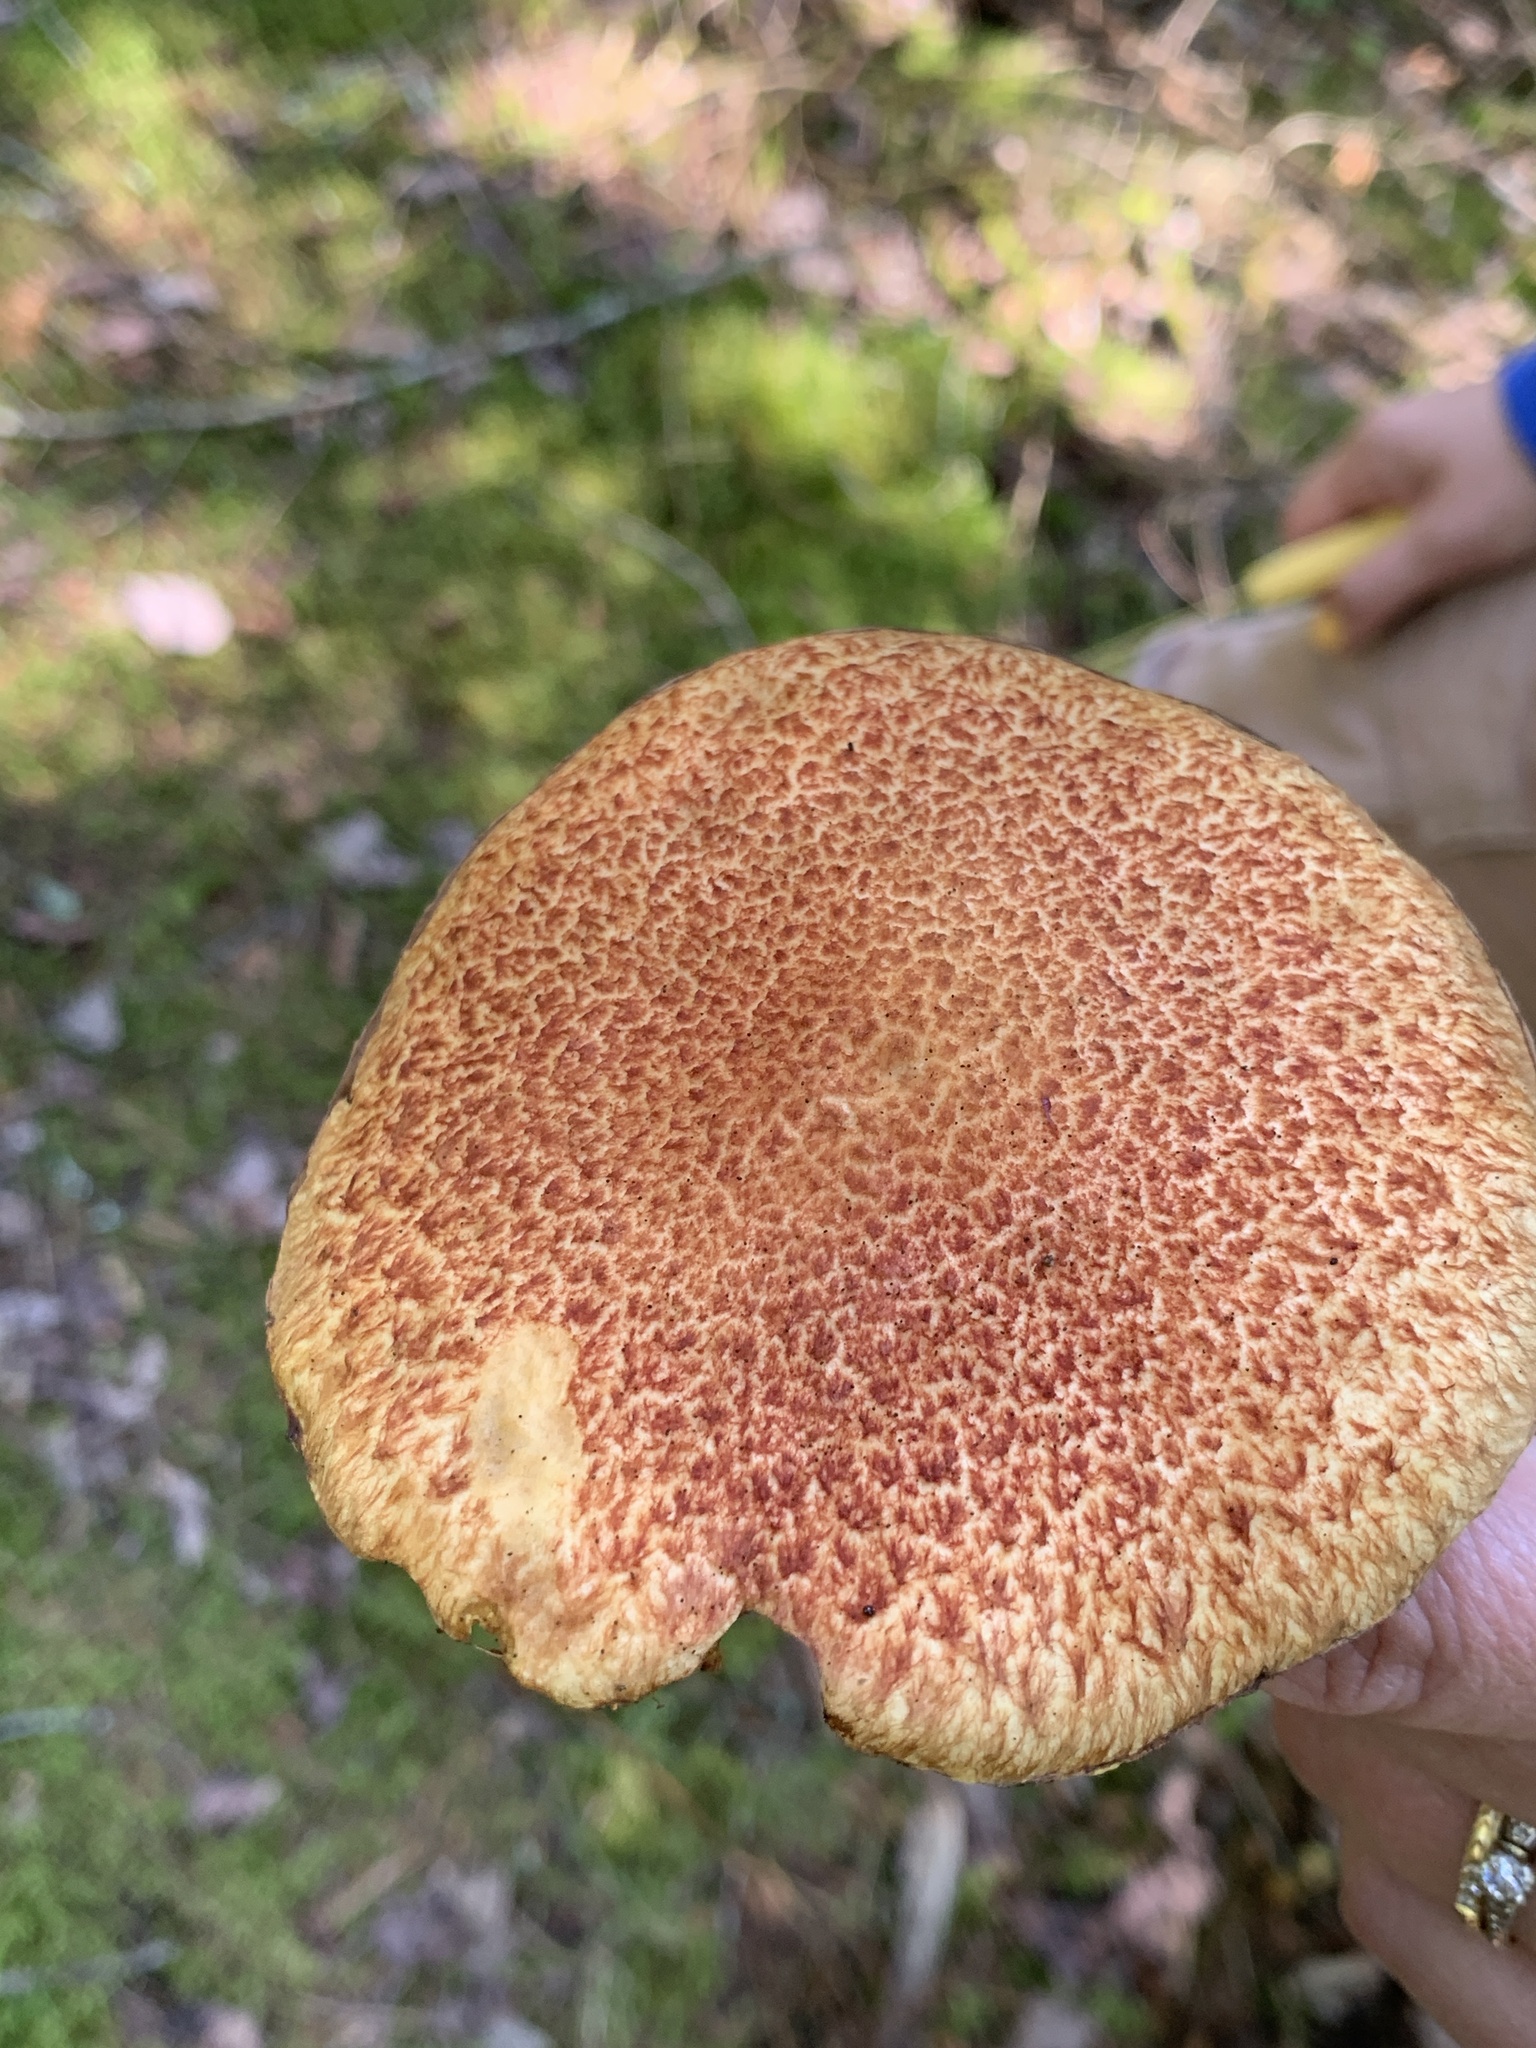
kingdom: Fungi
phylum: Basidiomycota
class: Agaricomycetes
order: Boletales
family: Suillaceae
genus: Suillus
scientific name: Suillus spraguei
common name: Painted suillus
